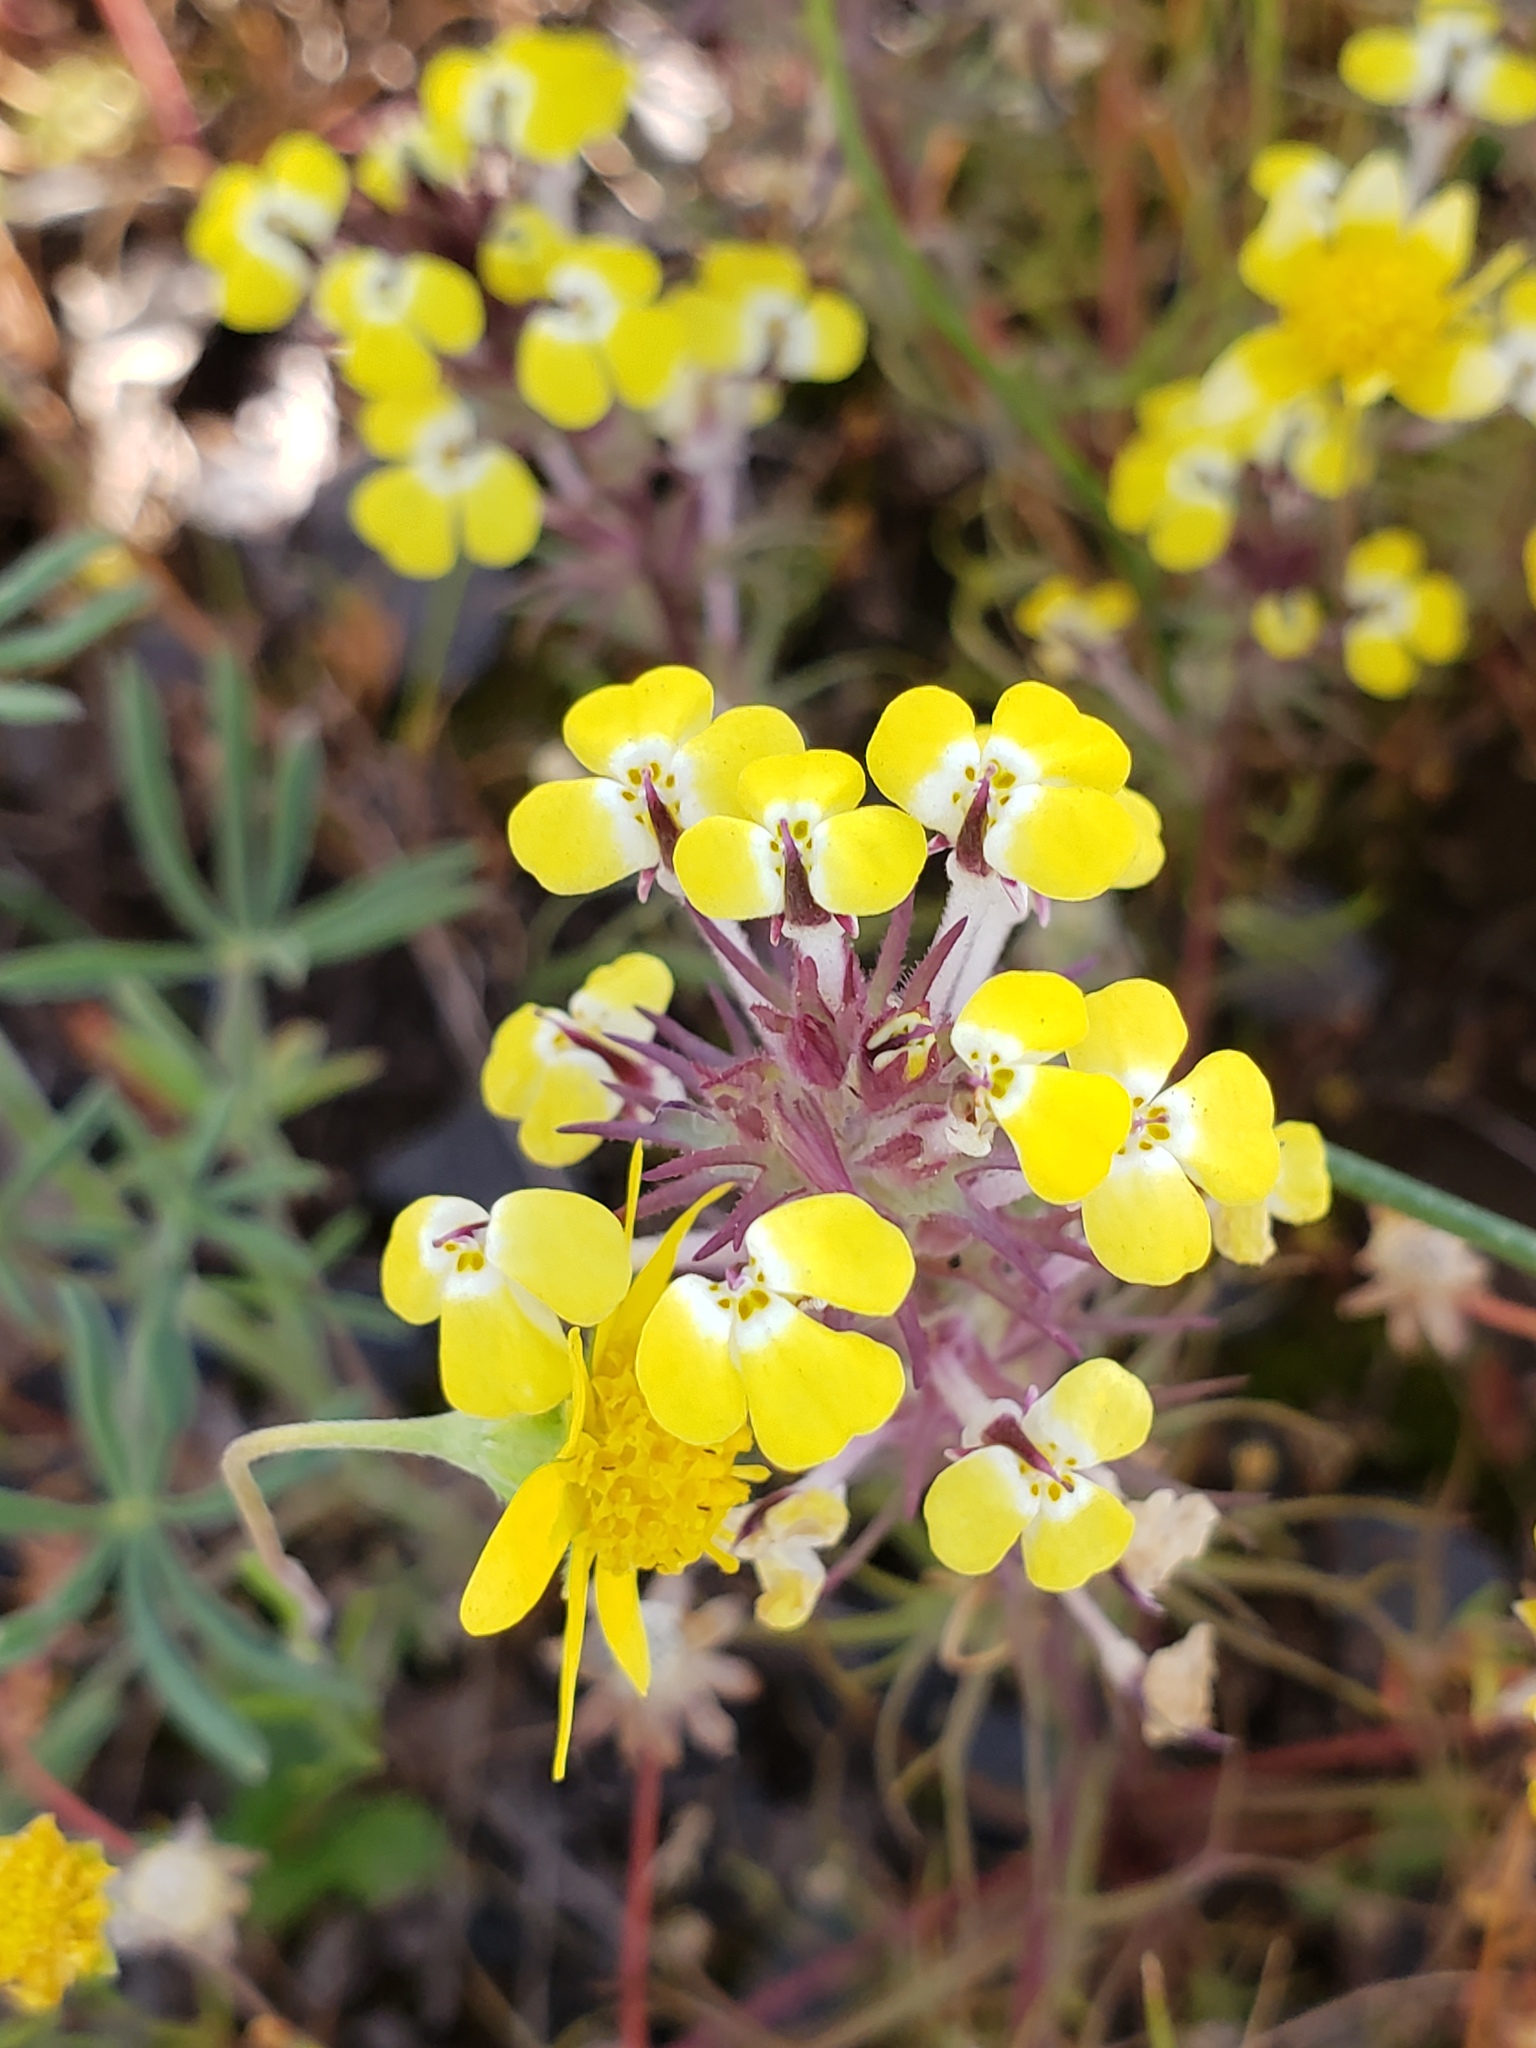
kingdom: Plantae
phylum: Tracheophyta
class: Magnoliopsida
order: Lamiales
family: Orobanchaceae
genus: Triphysaria
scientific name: Triphysaria eriantha
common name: Johnny-tuck
